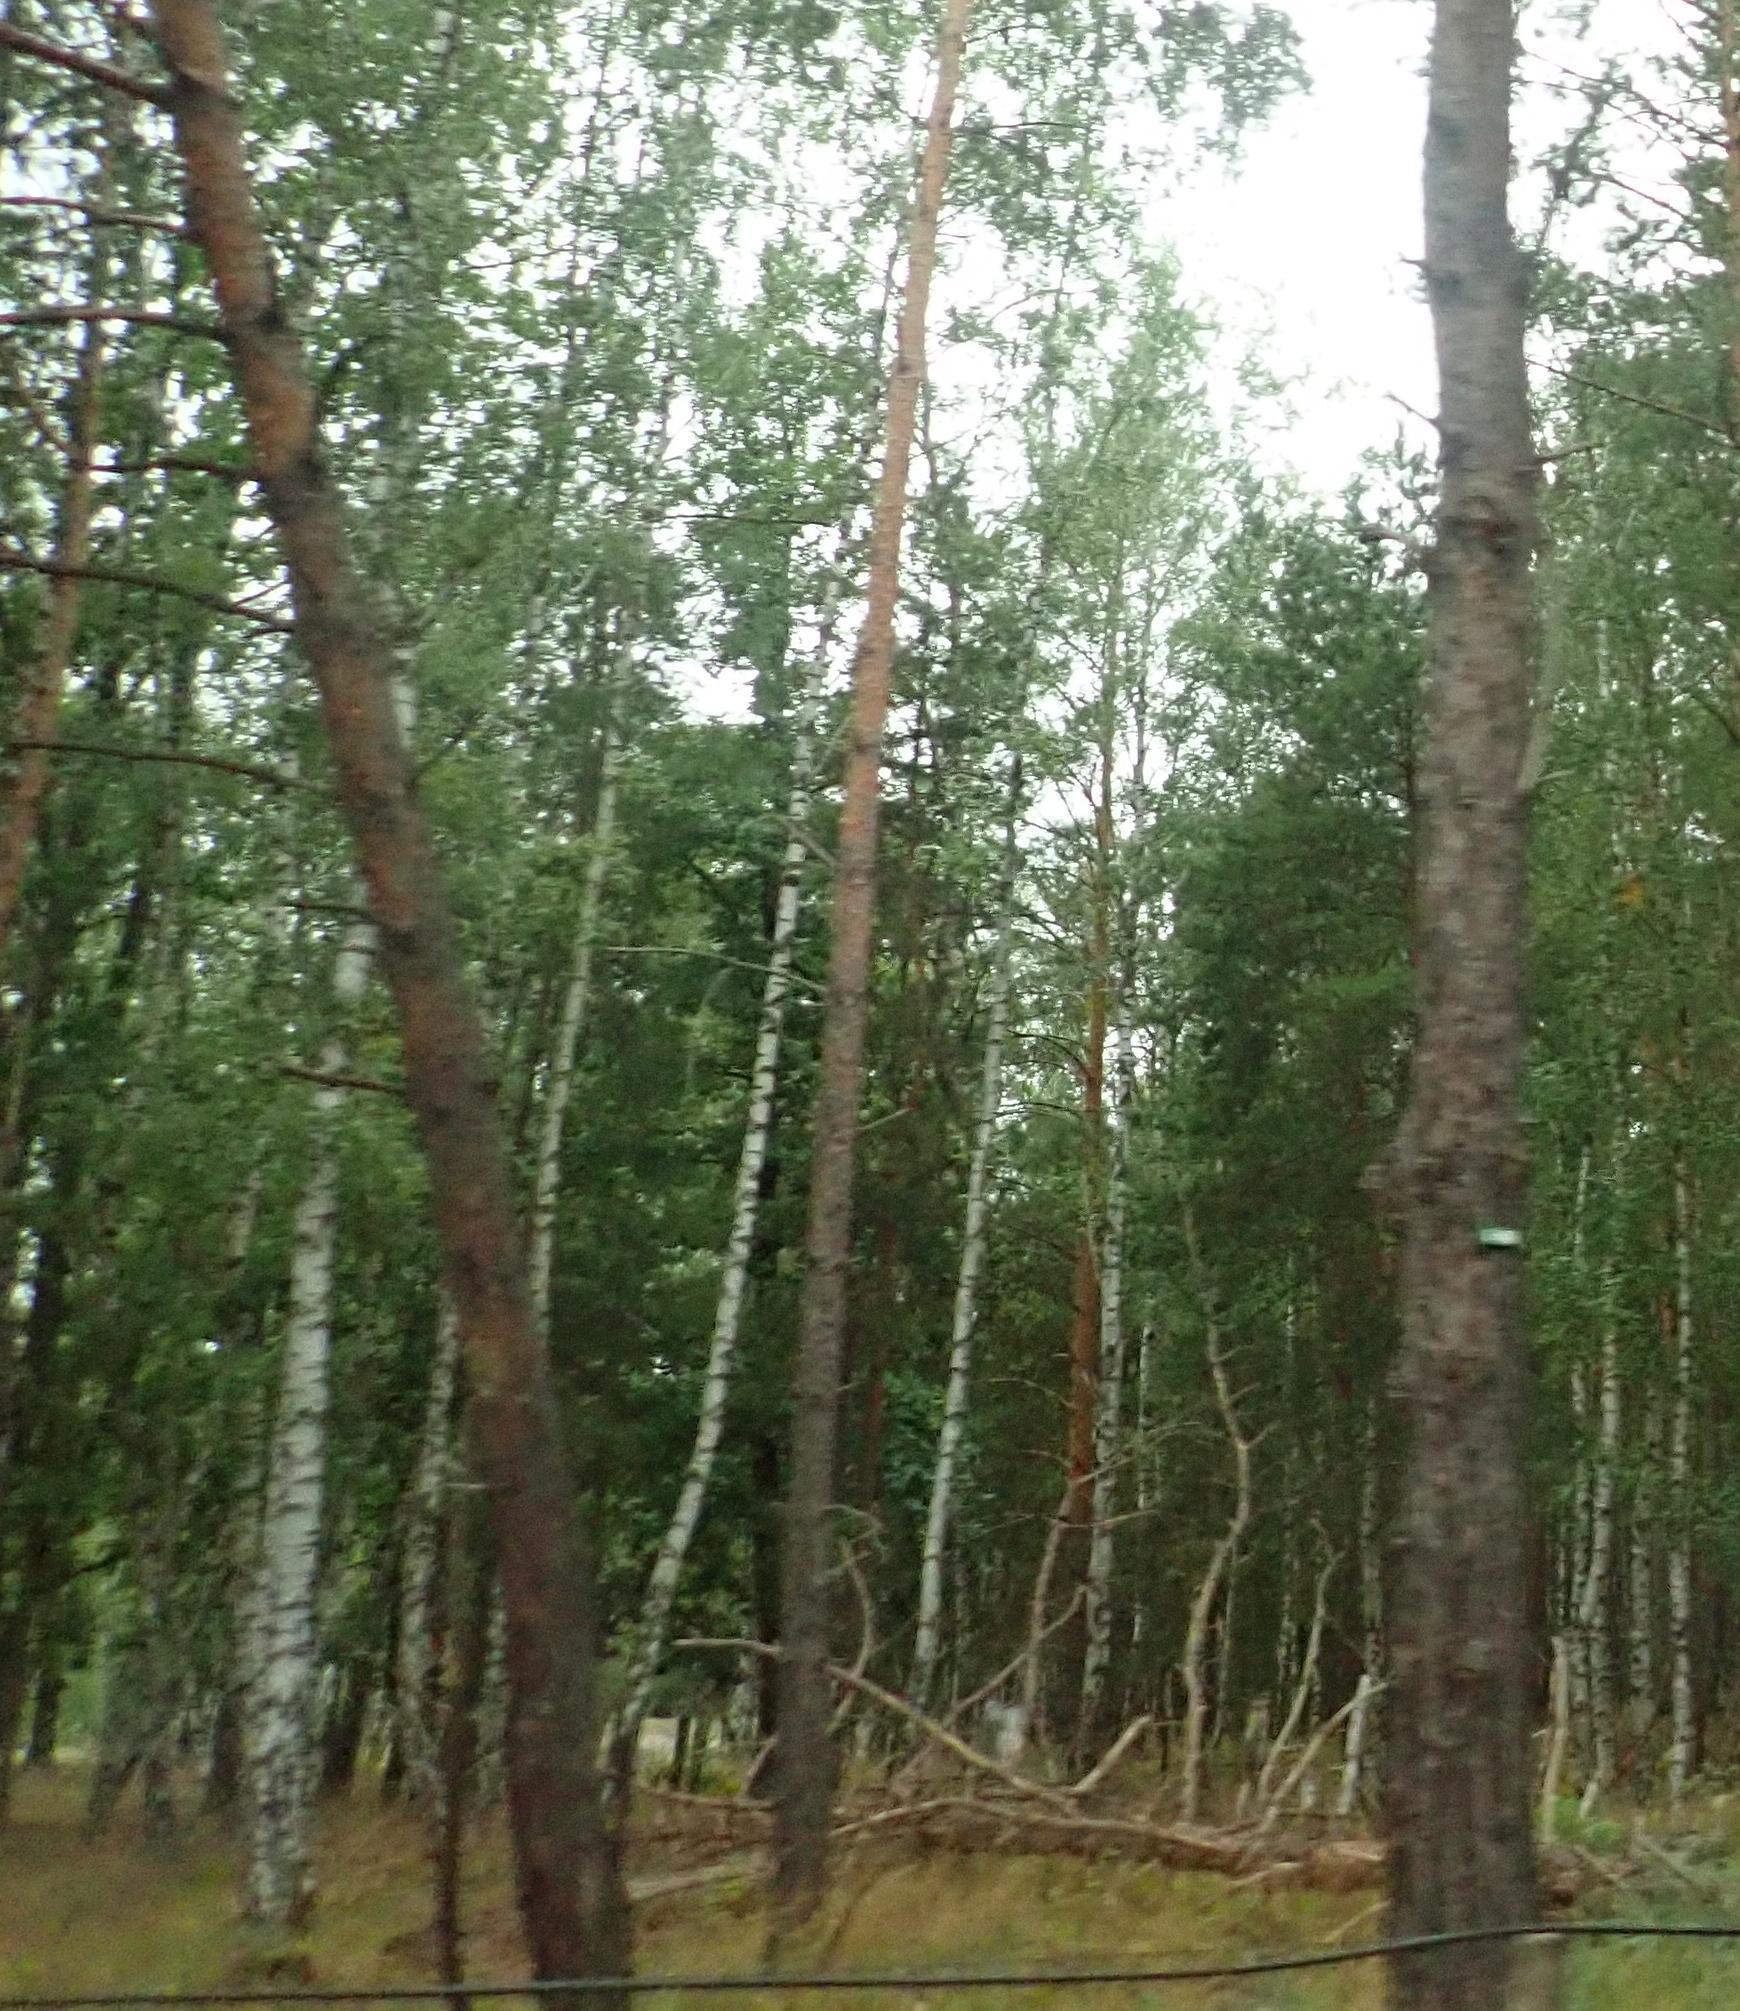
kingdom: Plantae
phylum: Tracheophyta
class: Magnoliopsida
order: Fagales
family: Betulaceae
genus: Betula
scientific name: Betula pendula
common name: Silver birch
